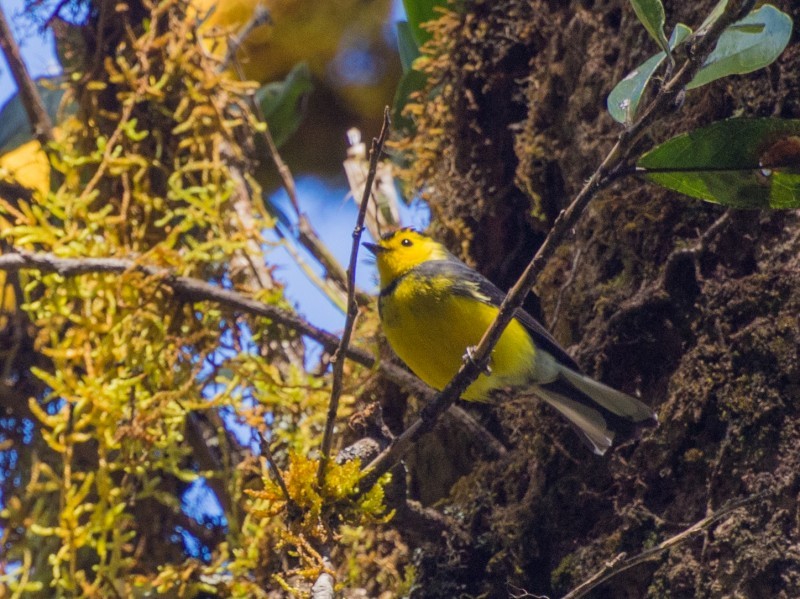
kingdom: Animalia
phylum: Chordata
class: Aves
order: Passeriformes
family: Parulidae
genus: Myioborus
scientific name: Myioborus torquatus
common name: Collared whitestart
